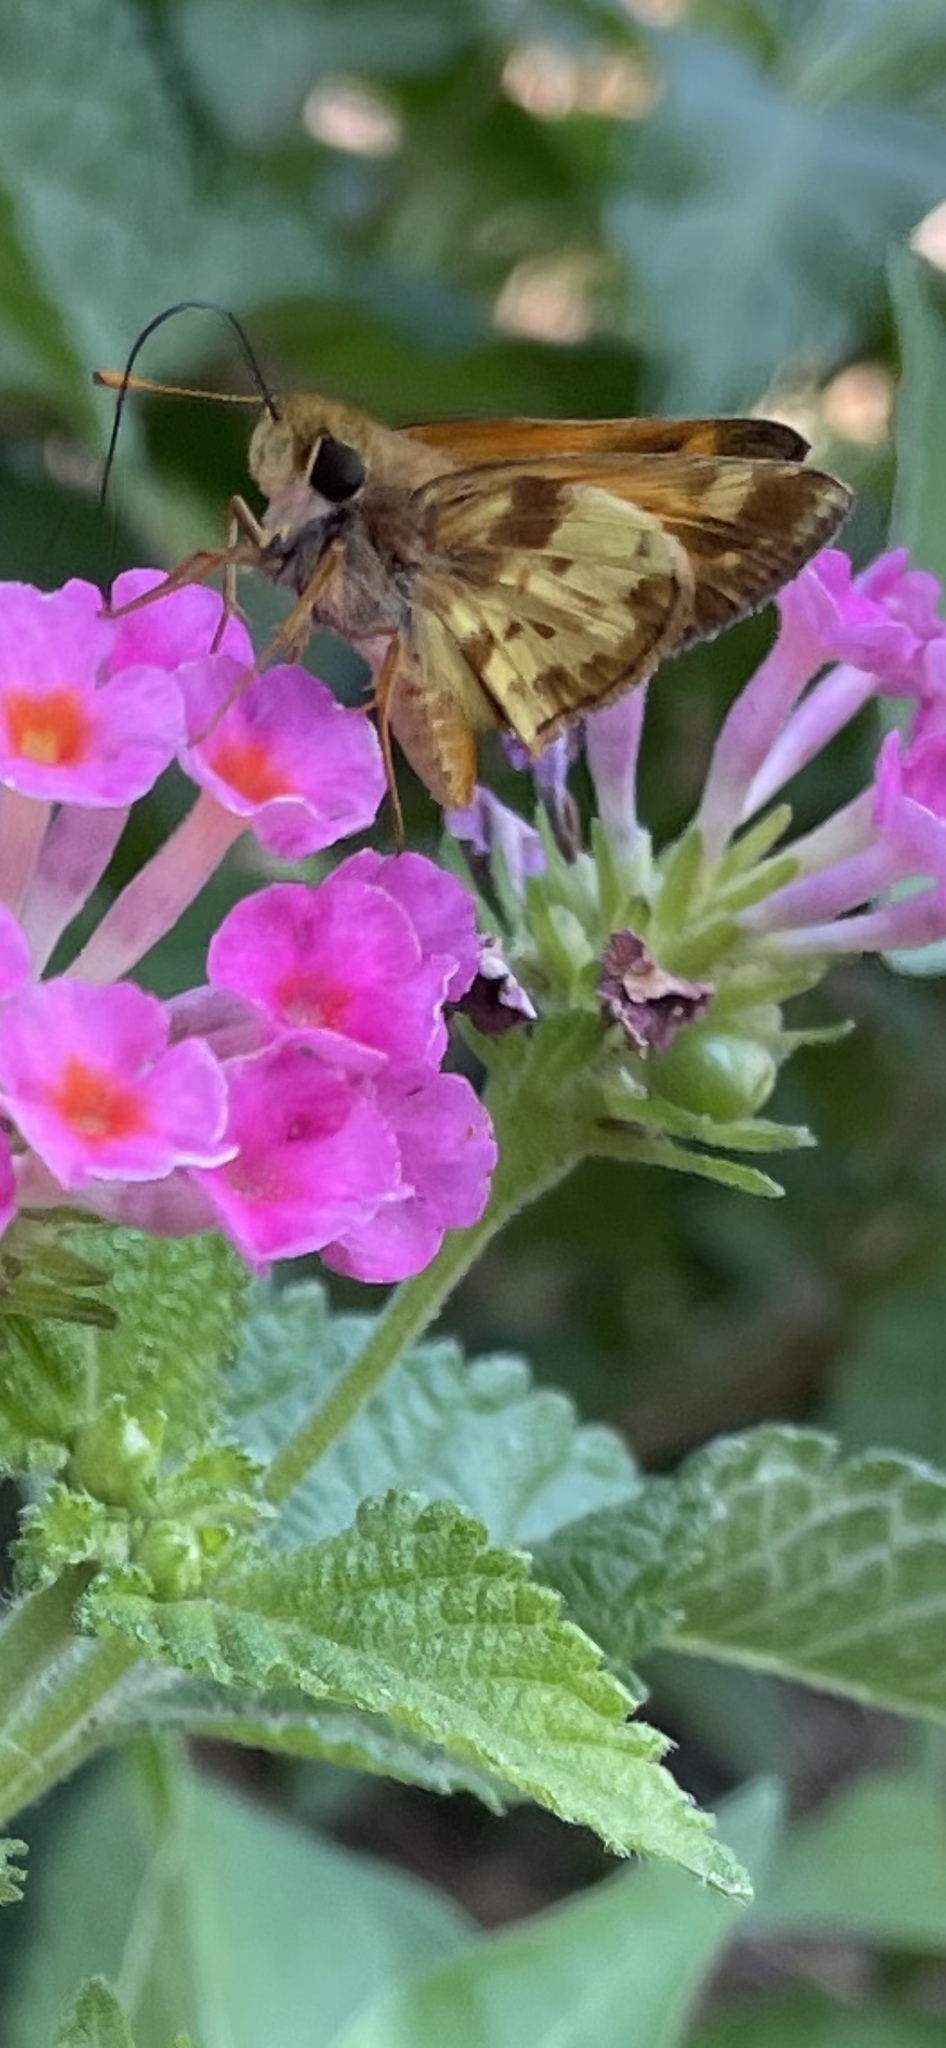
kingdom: Animalia
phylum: Arthropoda
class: Insecta
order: Lepidoptera
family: Hesperiidae
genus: Lon
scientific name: Lon zabulon
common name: Zabulon skipper
